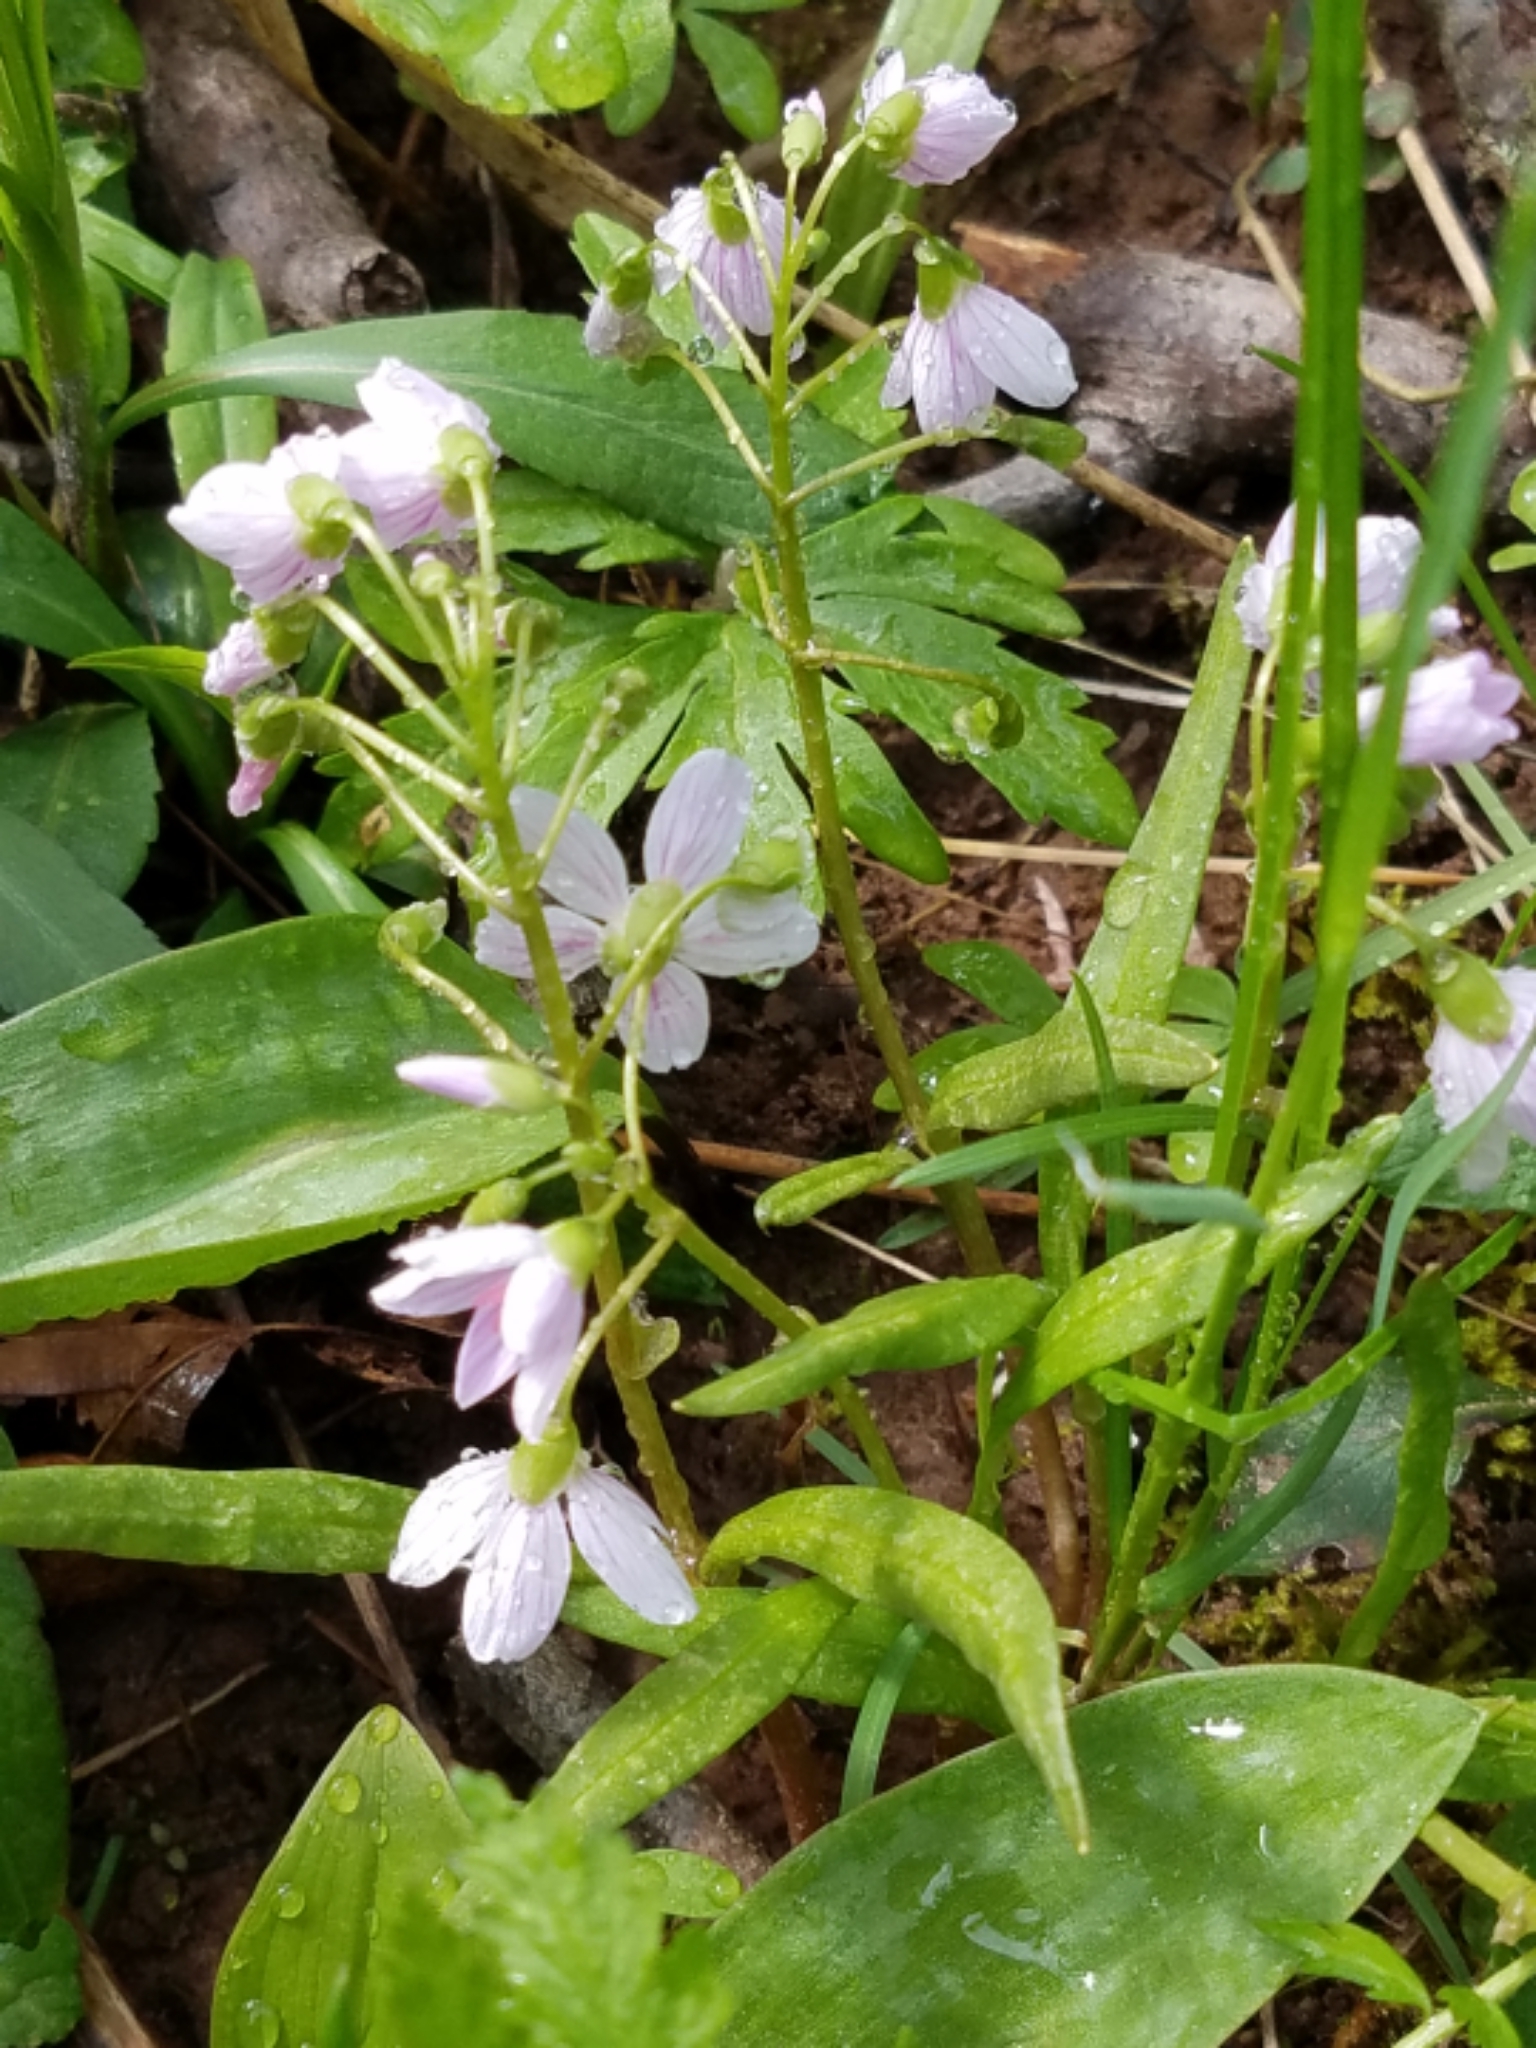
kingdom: Plantae
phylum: Tracheophyta
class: Magnoliopsida
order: Caryophyllales
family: Montiaceae
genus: Claytonia
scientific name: Claytonia virginica
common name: Virginia springbeauty
